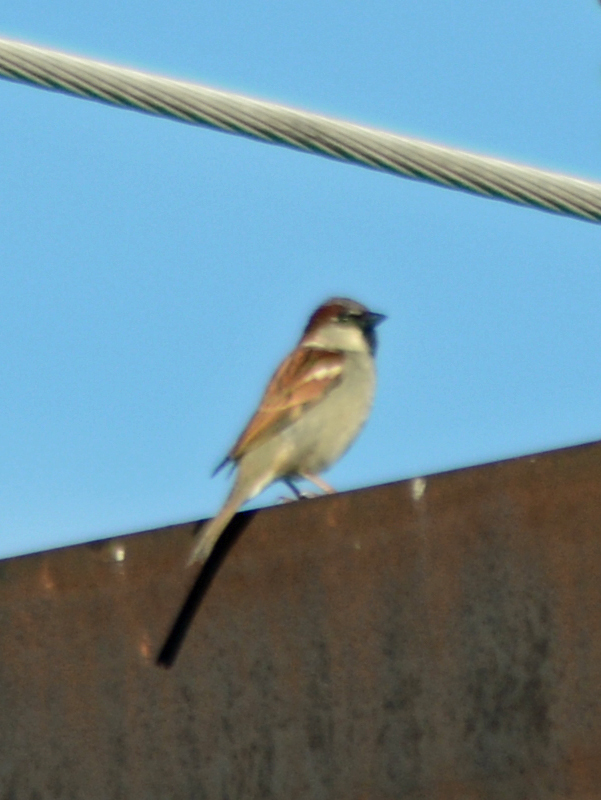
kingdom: Animalia
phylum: Chordata
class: Aves
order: Passeriformes
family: Passeridae
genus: Passer
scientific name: Passer domesticus
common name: House sparrow
